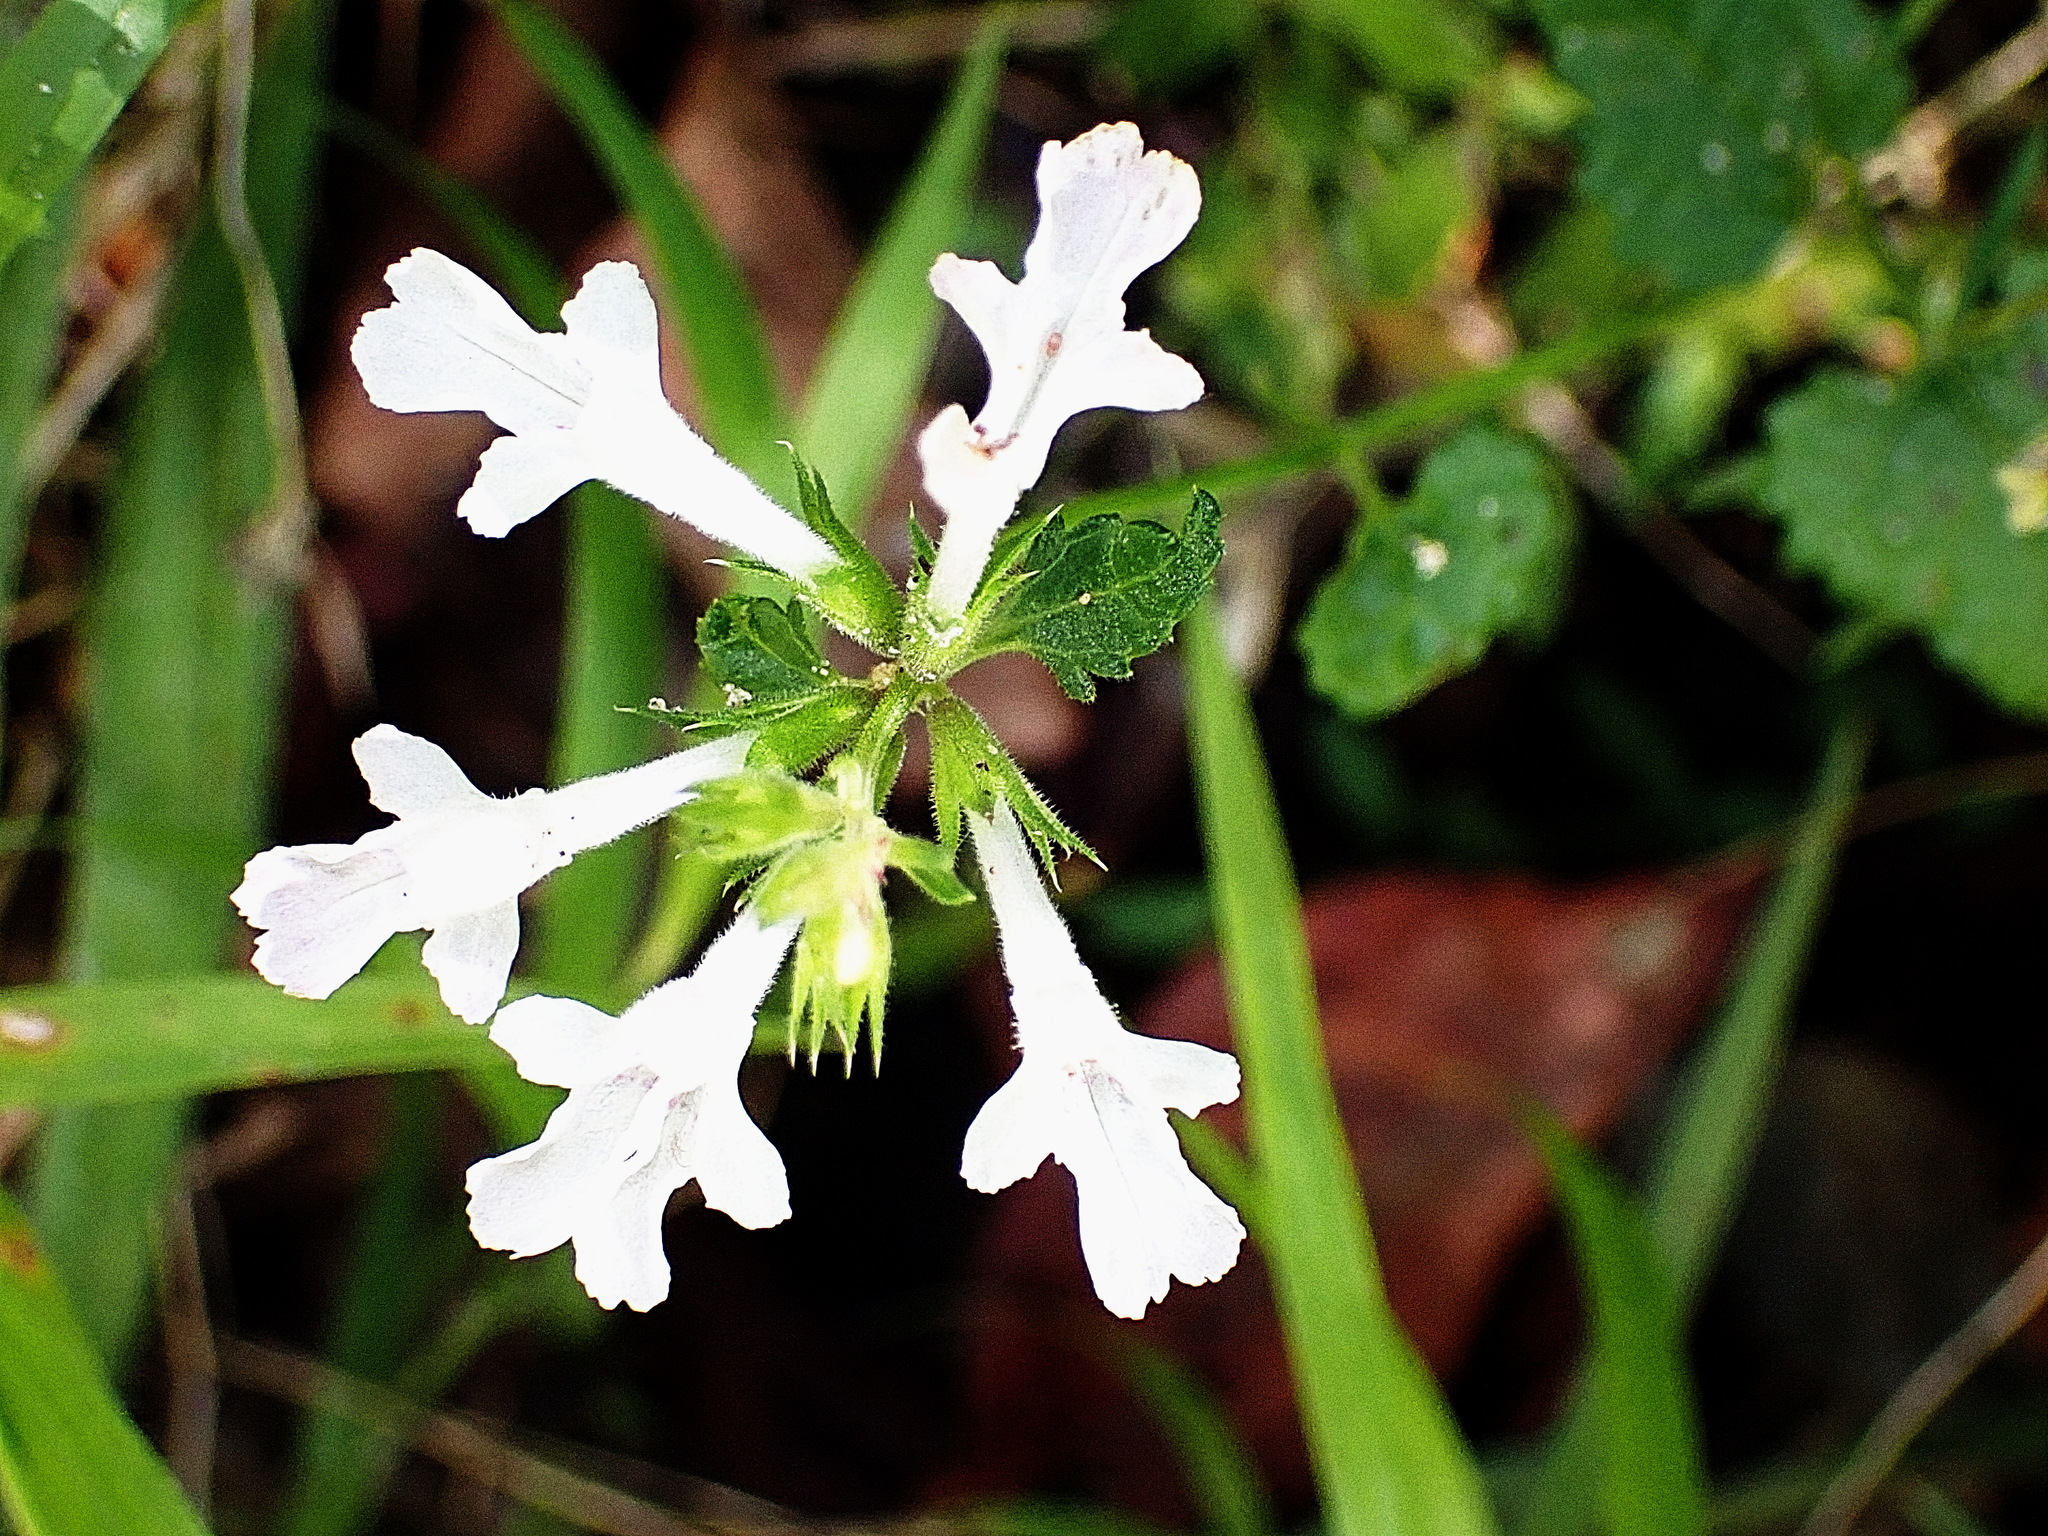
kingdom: Plantae
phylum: Tracheophyta
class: Magnoliopsida
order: Lamiales
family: Lamiaceae
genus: Stachys
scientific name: Stachys aethiopica
